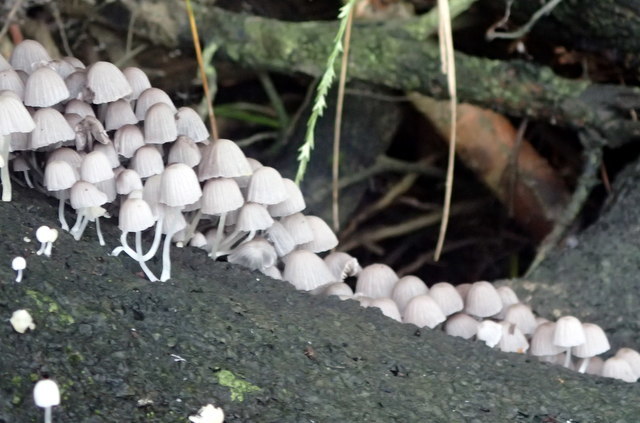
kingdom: Fungi
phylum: Basidiomycota
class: Agaricomycetes
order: Agaricales
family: Psathyrellaceae
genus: Coprinellus
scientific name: Coprinellus disseminatus
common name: Fairies' bonnets
